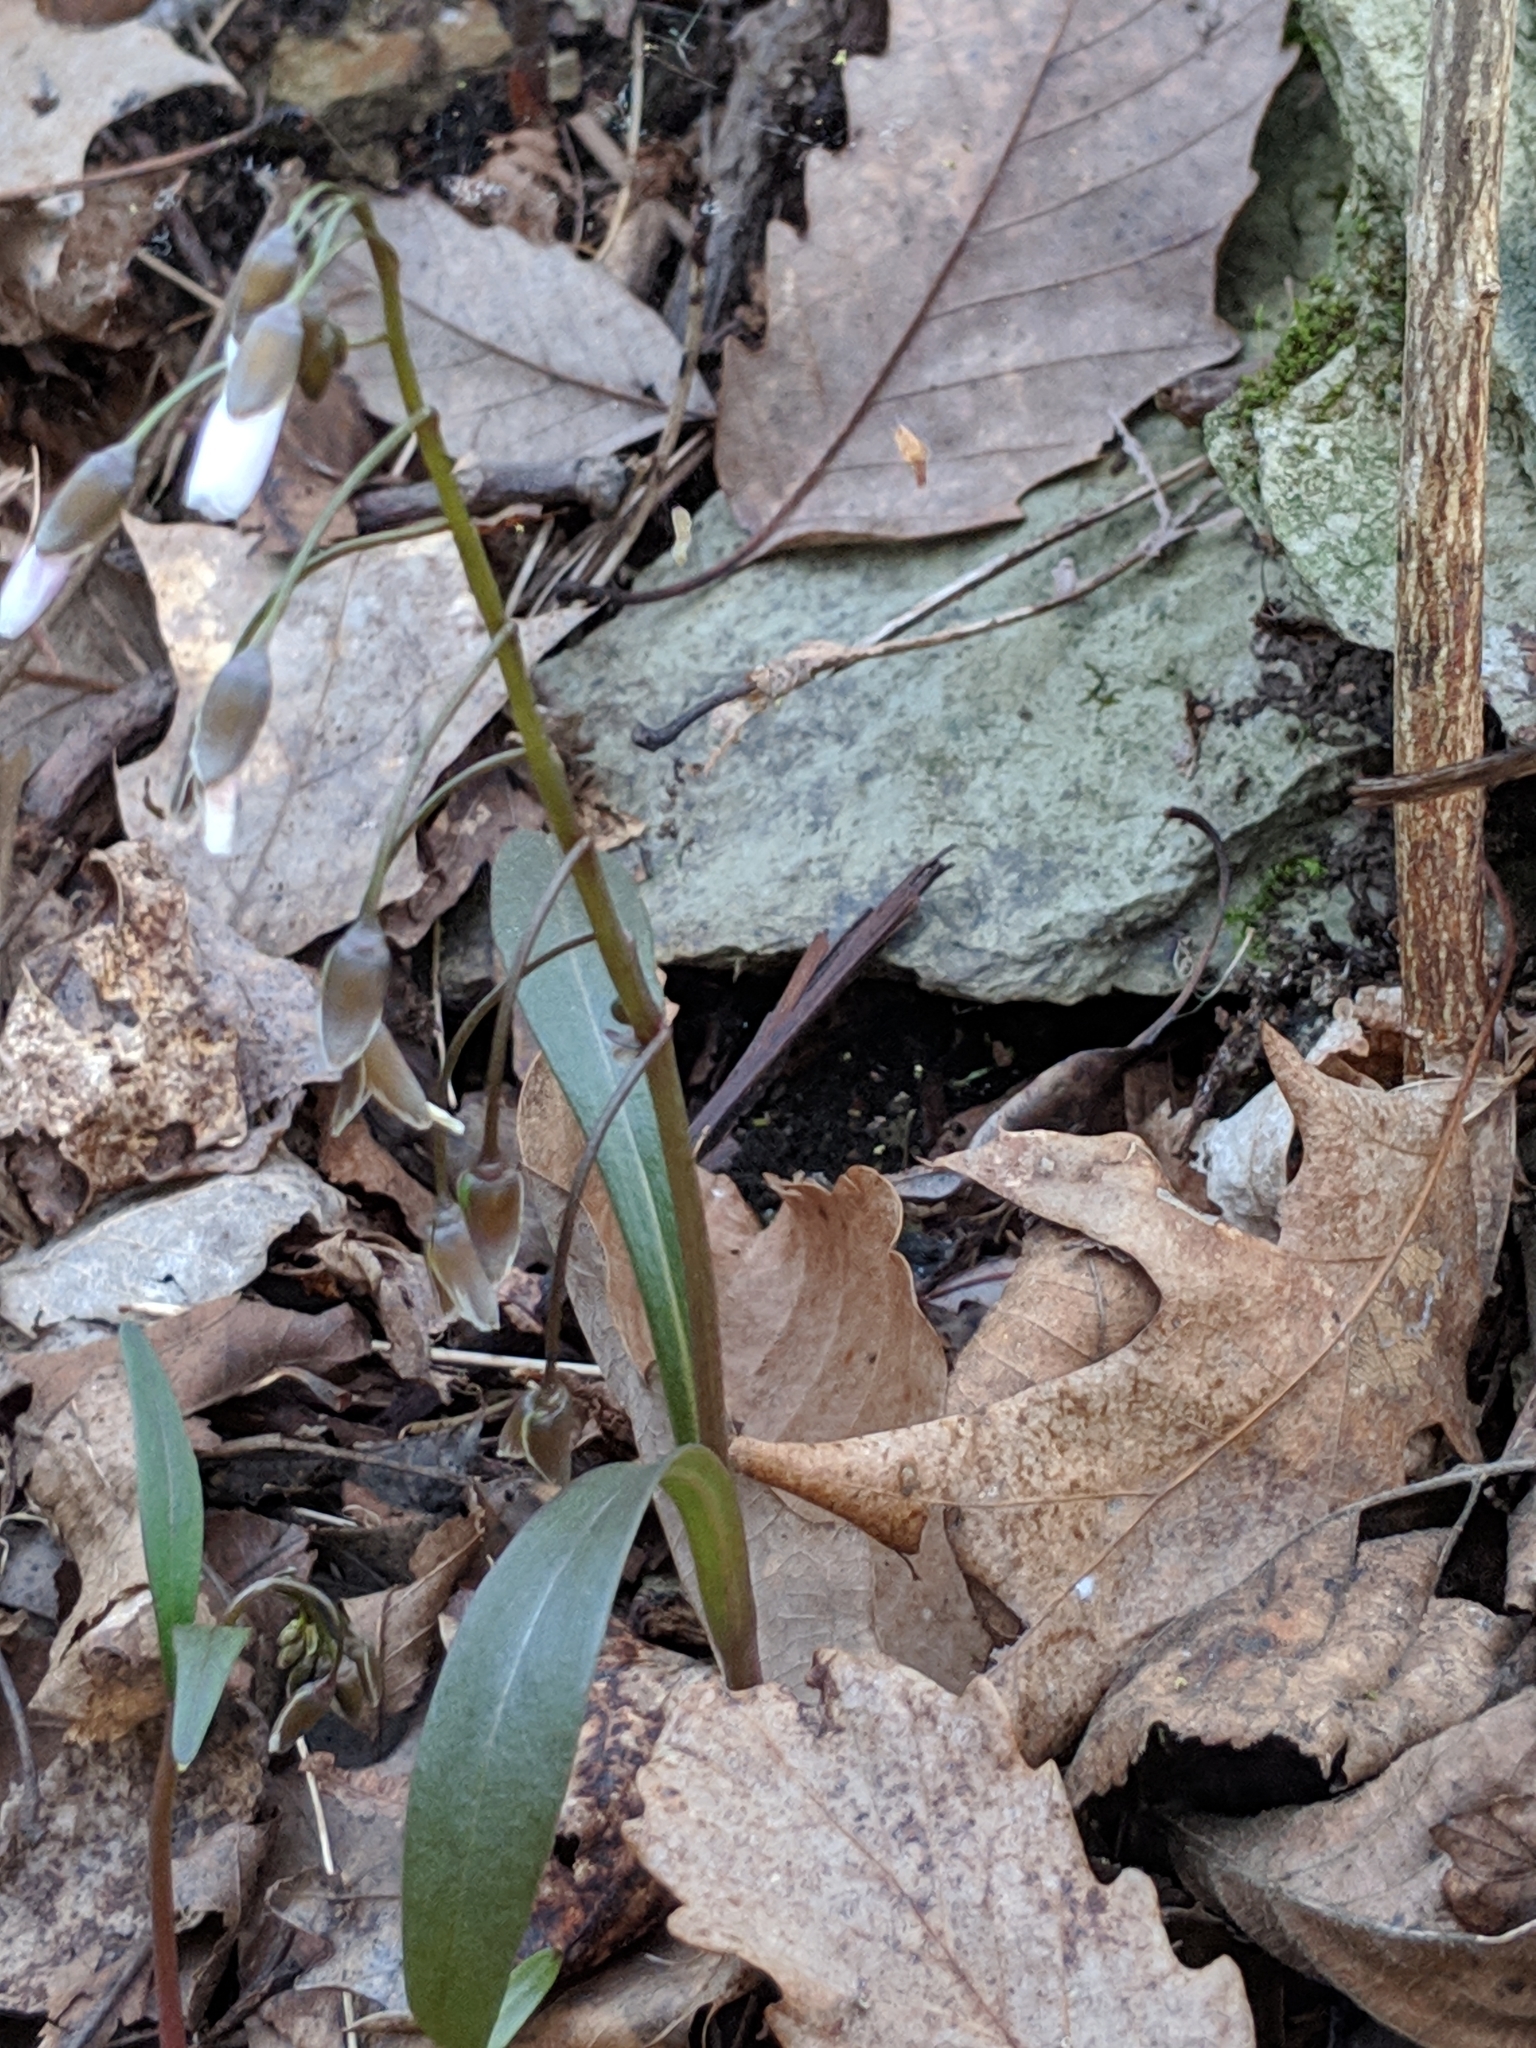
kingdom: Plantae
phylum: Tracheophyta
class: Magnoliopsida
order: Caryophyllales
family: Montiaceae
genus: Claytonia
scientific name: Claytonia virginica
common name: Virginia springbeauty
